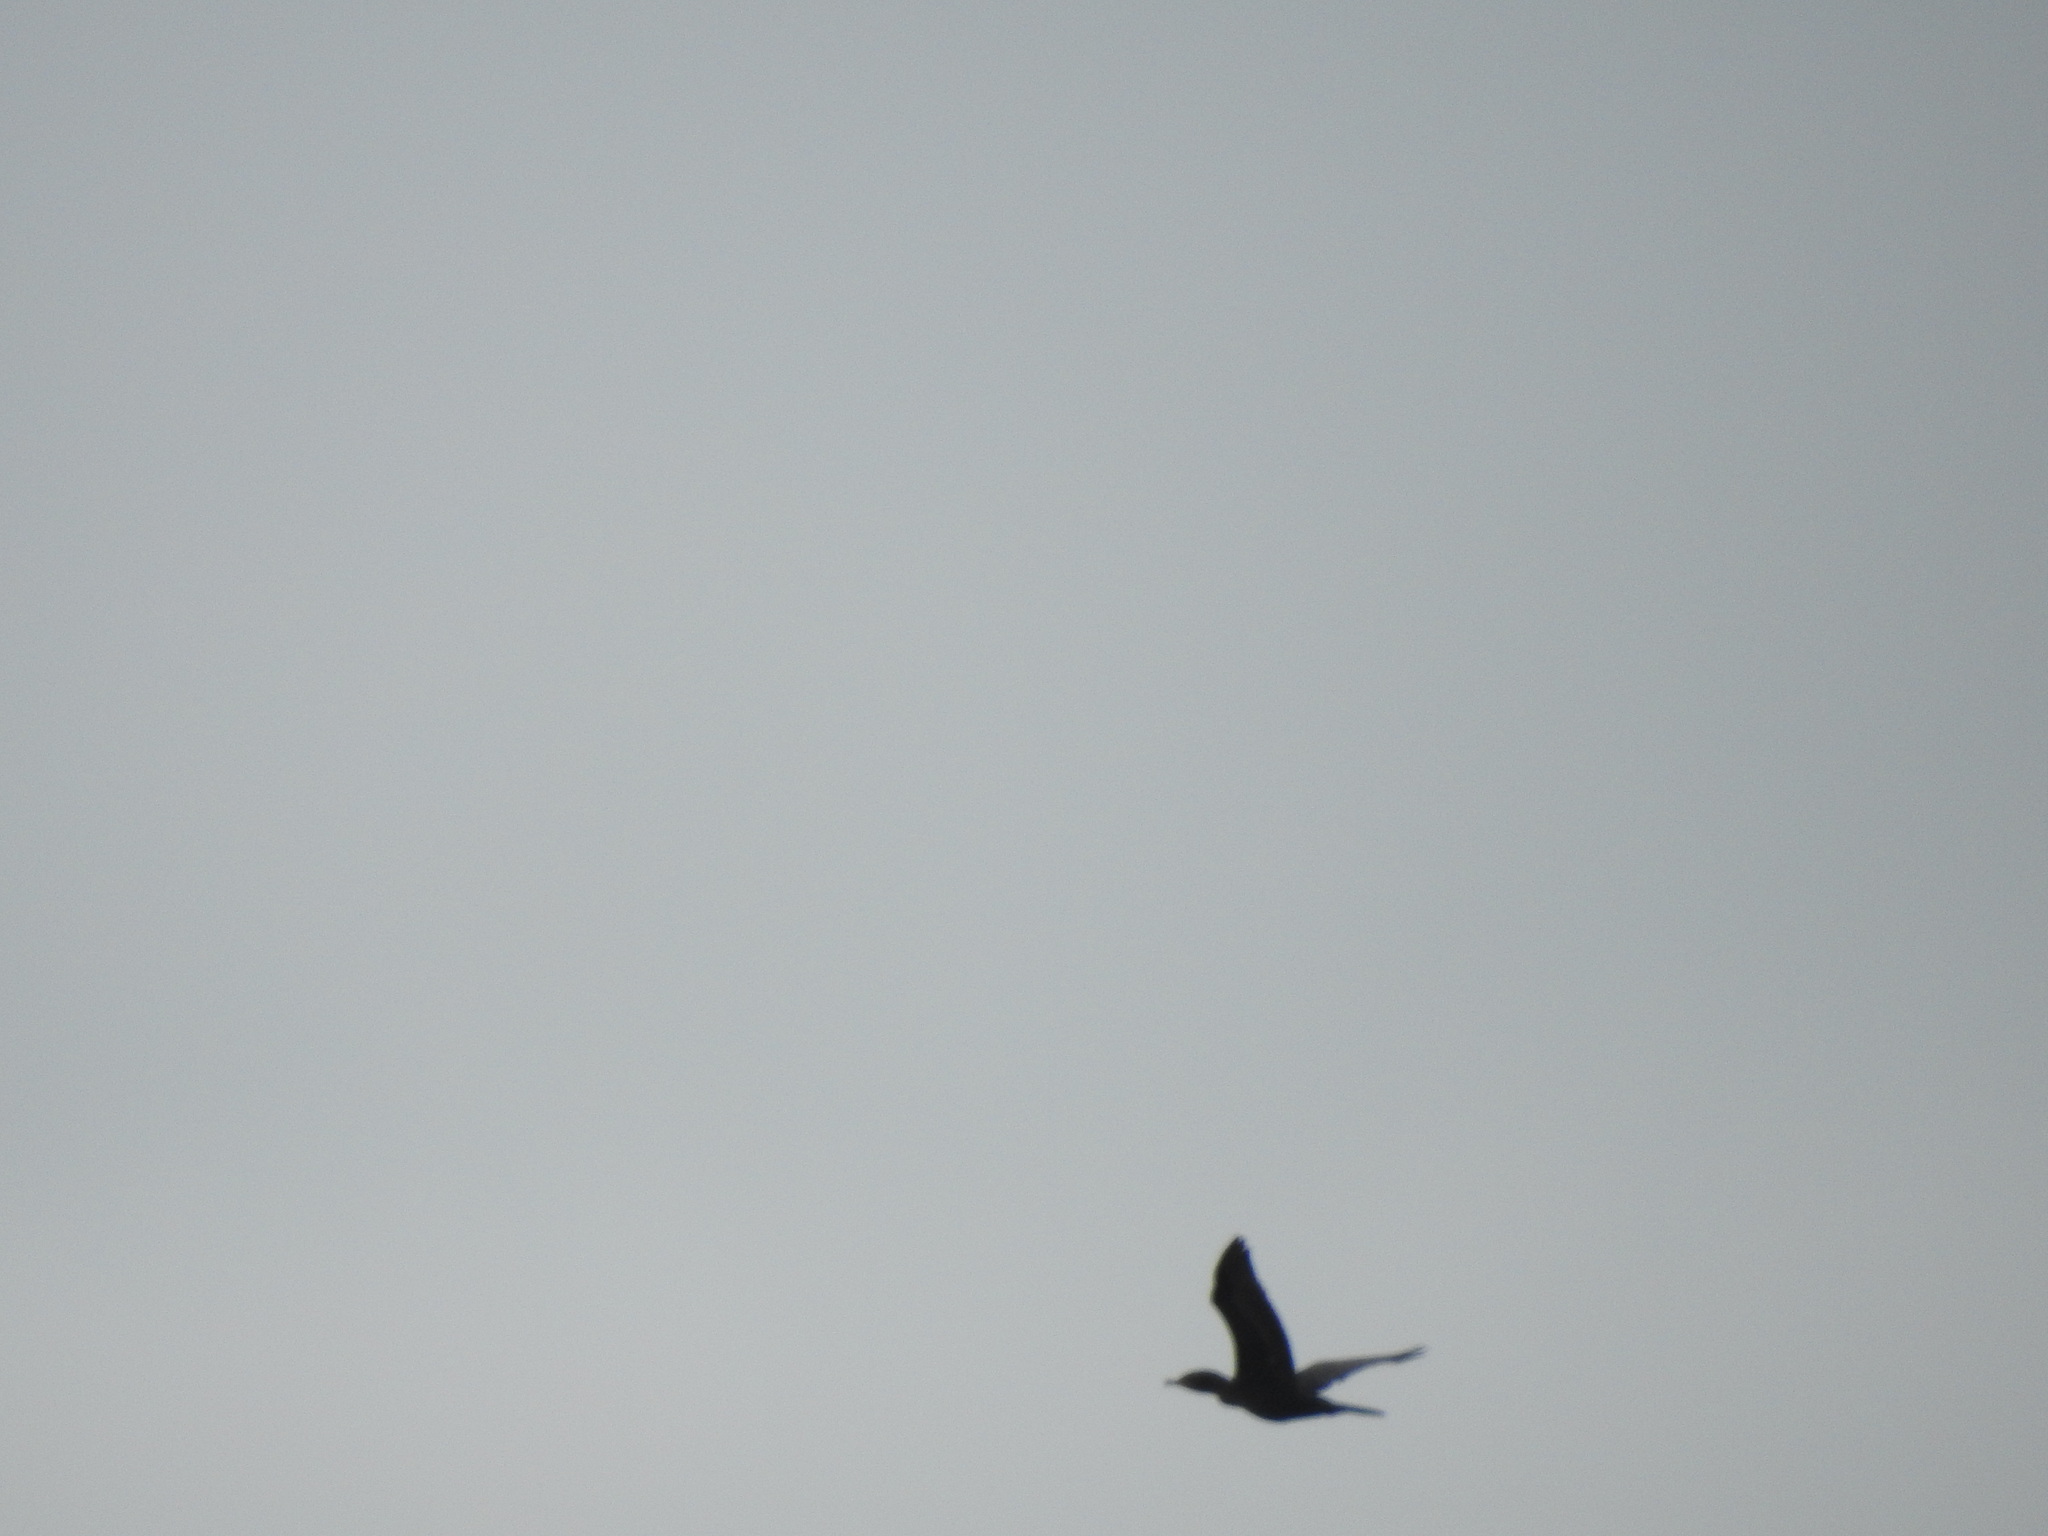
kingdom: Animalia
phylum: Chordata
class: Aves
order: Suliformes
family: Phalacrocoracidae
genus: Phalacrocorax
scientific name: Phalacrocorax brasilianus
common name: Neotropic cormorant
